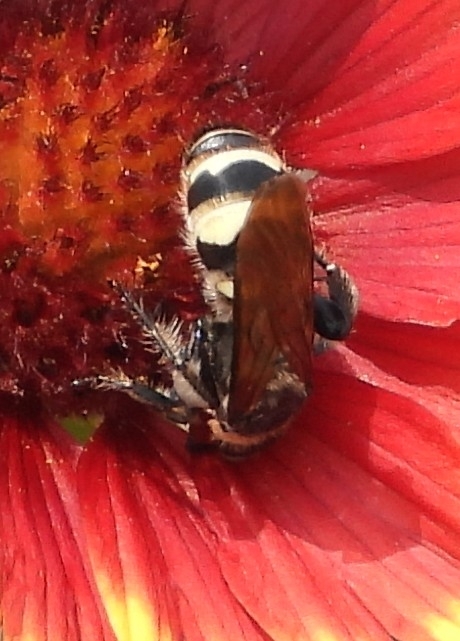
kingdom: Animalia
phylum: Arthropoda
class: Insecta
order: Hymenoptera
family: Scoliidae
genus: Dielis
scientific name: Dielis
